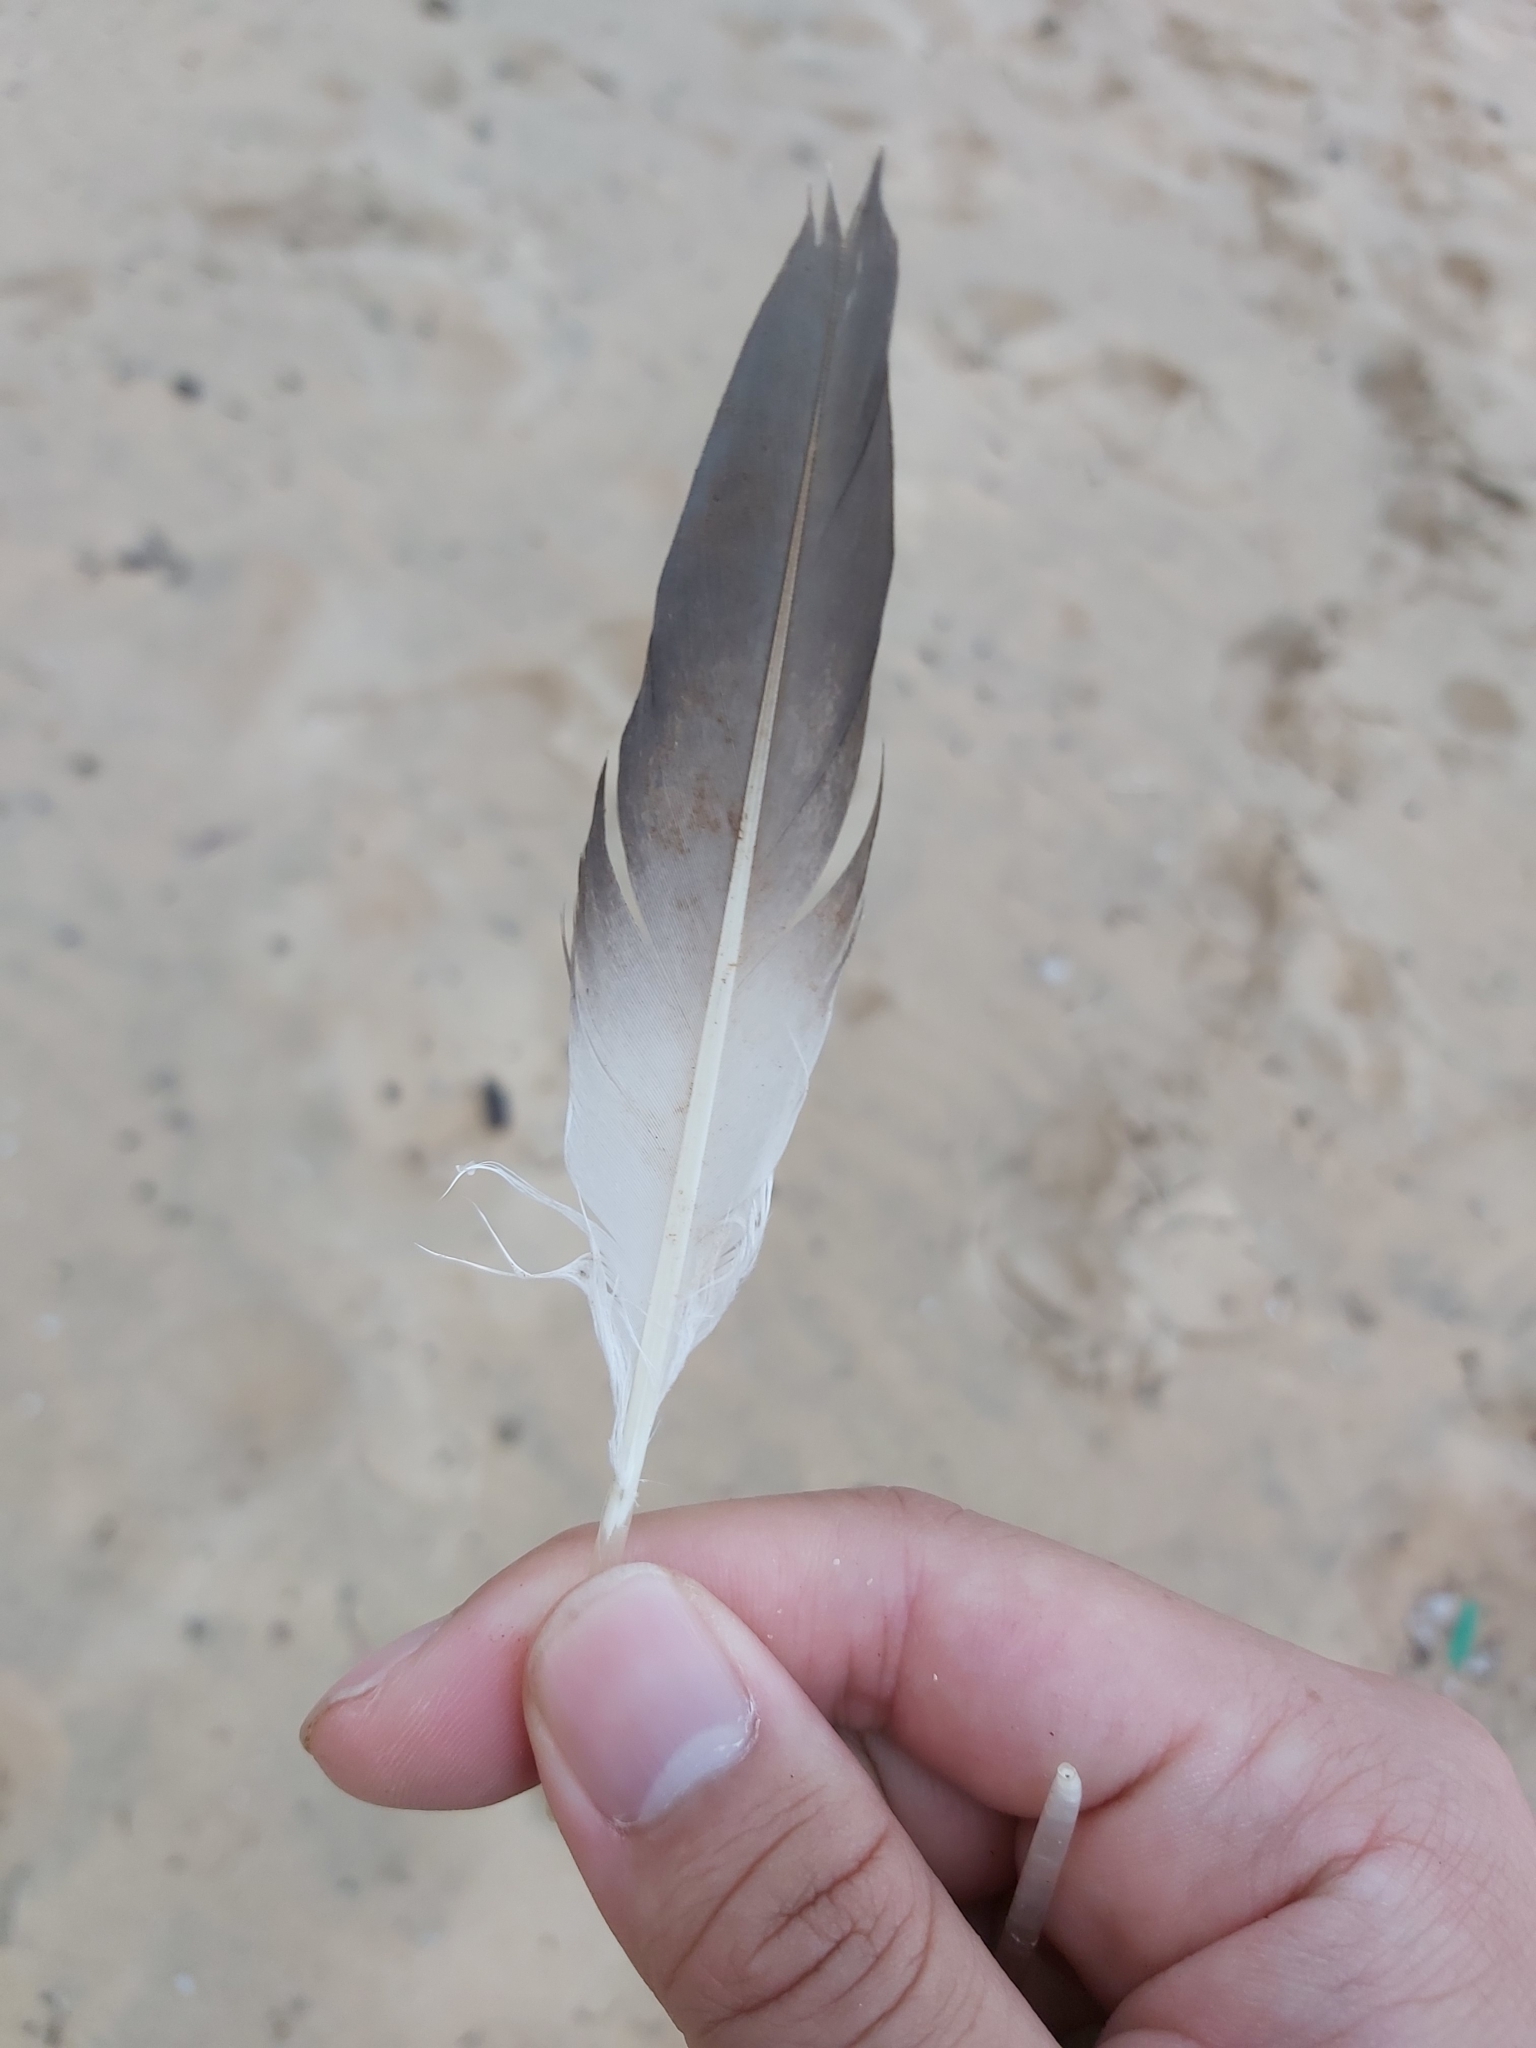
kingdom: Animalia
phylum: Chordata
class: Aves
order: Suliformes
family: Sulidae
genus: Morus
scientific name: Morus serrator
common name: Australasian gannet
